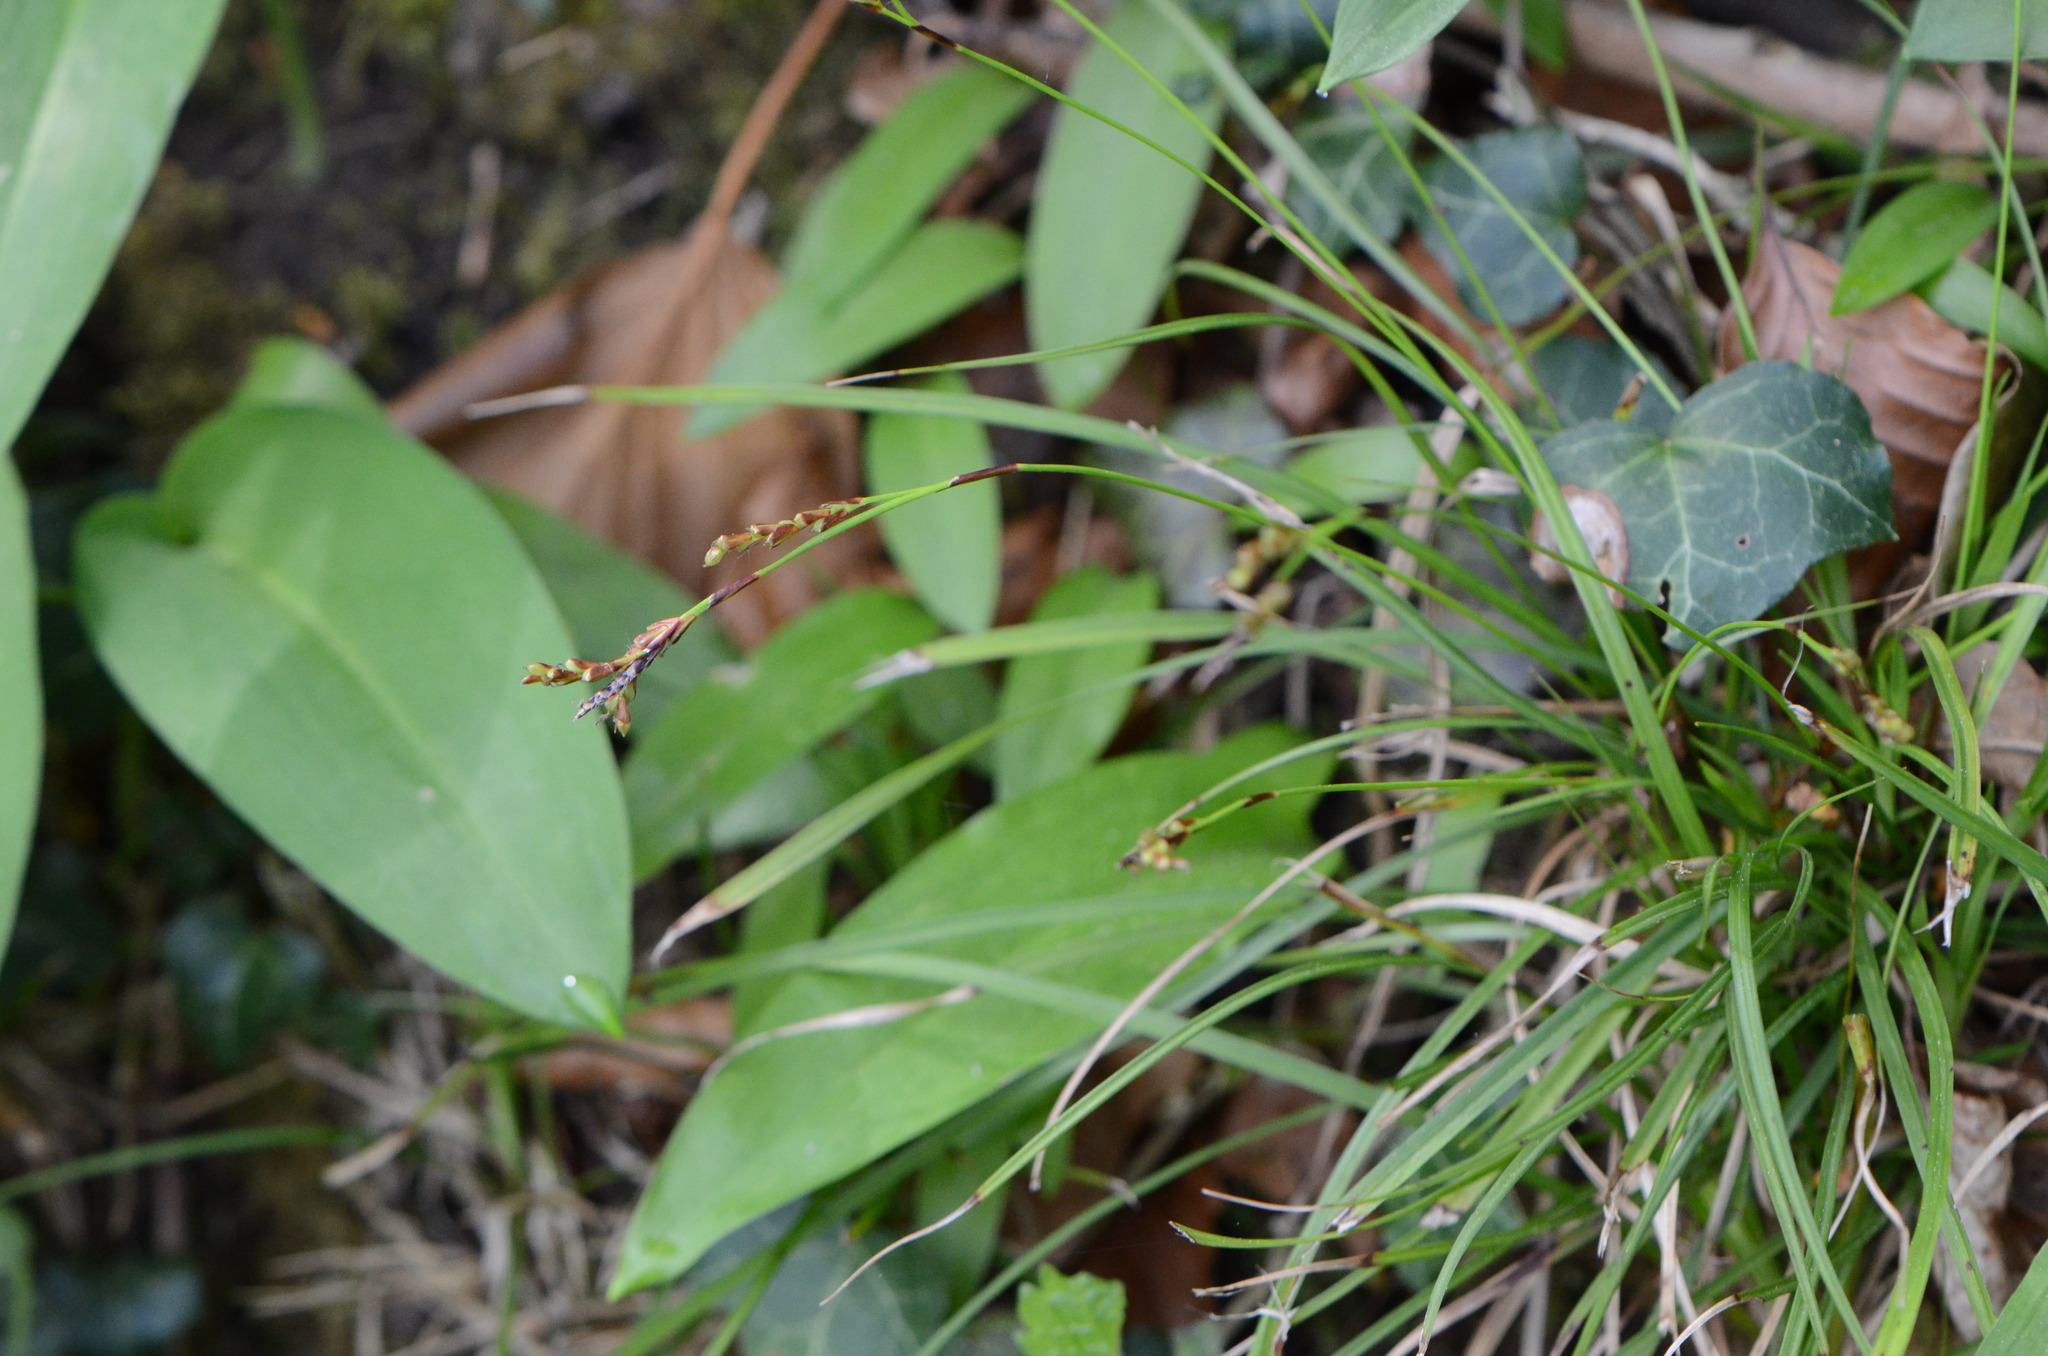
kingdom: Plantae
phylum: Tracheophyta
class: Liliopsida
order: Poales
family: Cyperaceae
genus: Carex
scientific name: Carex digitata
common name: Fingered sedge
